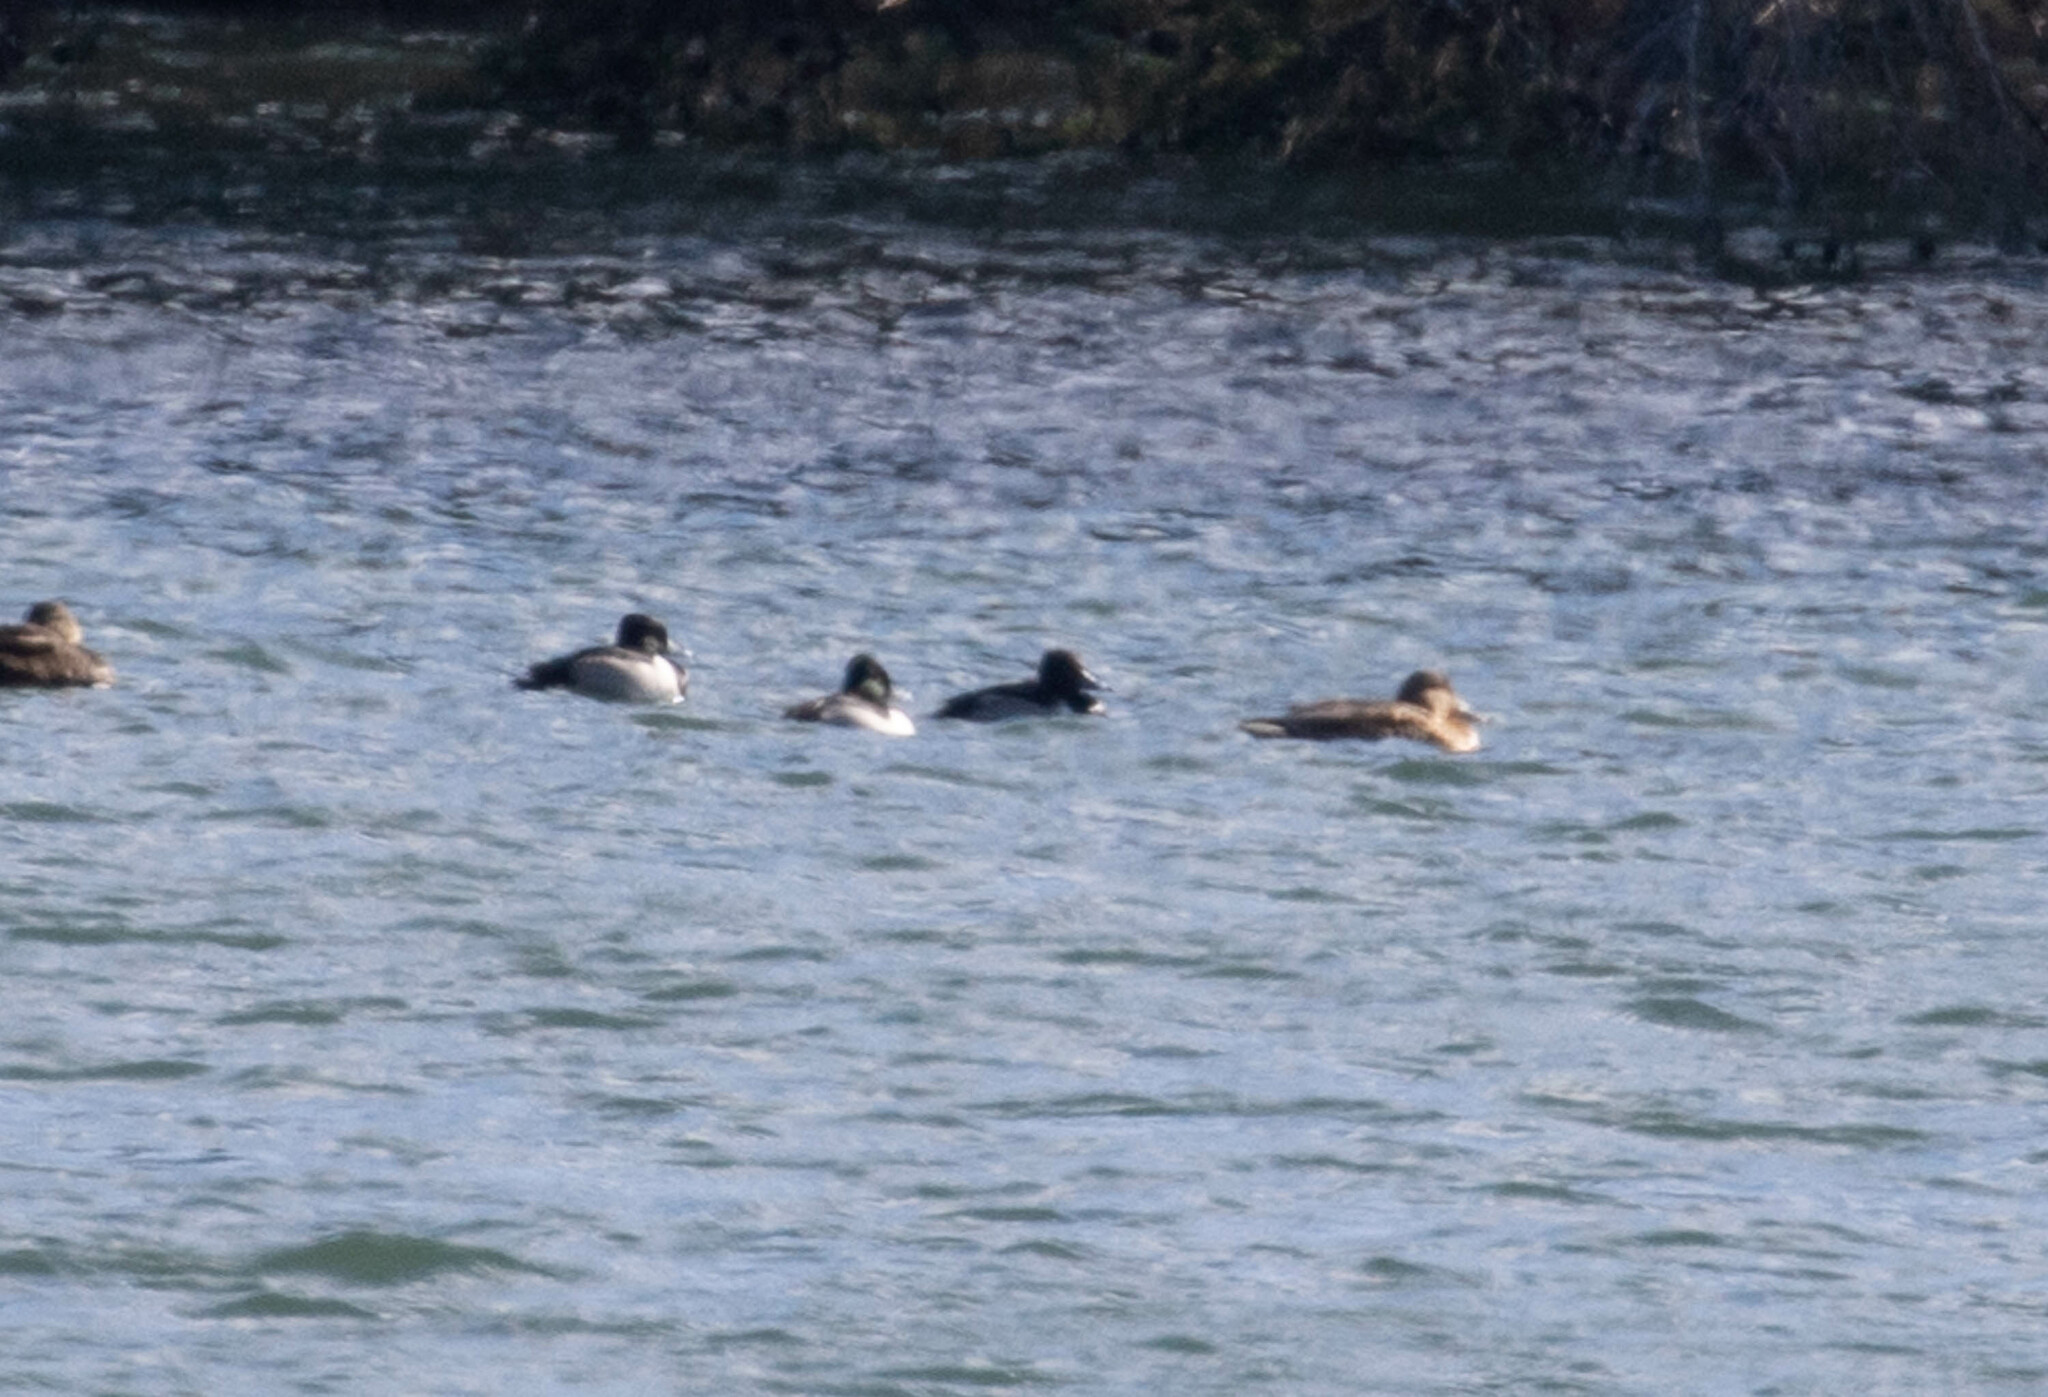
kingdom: Animalia
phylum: Chordata
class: Aves
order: Anseriformes
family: Anatidae
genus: Aythya
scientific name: Aythya collaris
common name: Ring-necked duck
